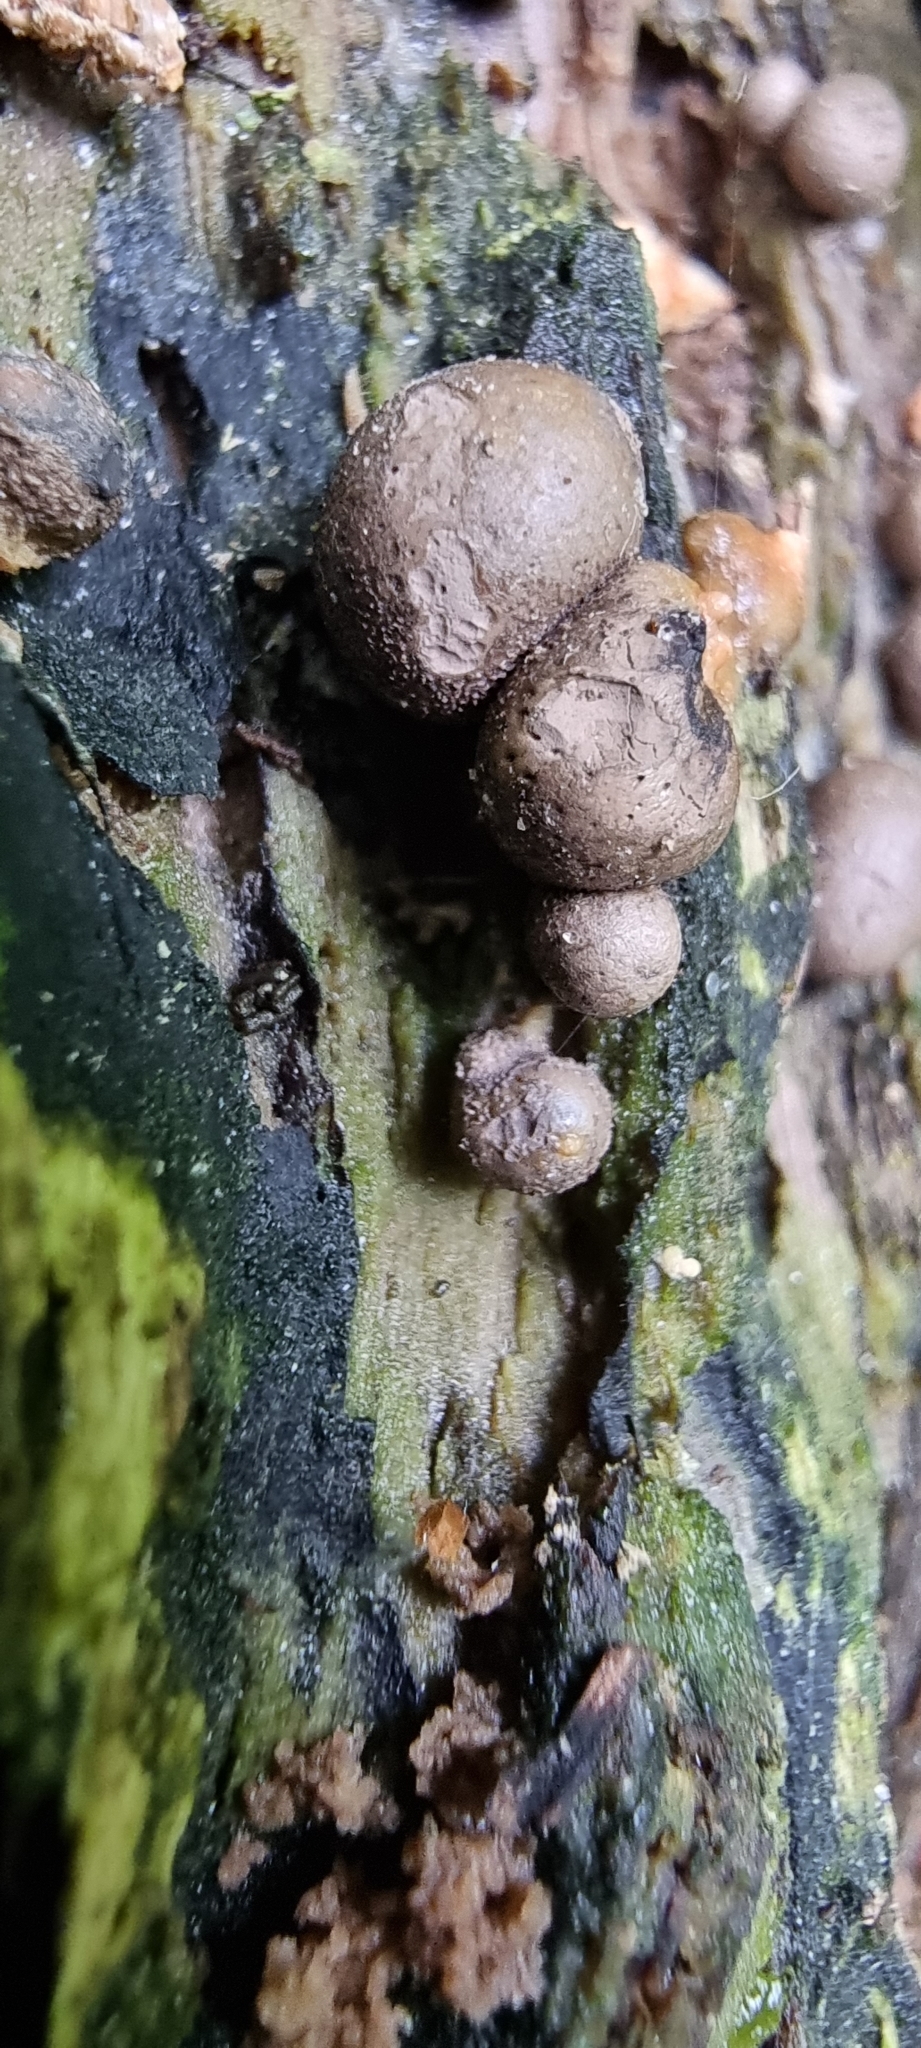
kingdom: Protozoa
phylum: Mycetozoa
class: Myxomycetes
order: Cribrariales
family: Tubiferaceae
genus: Lycogala
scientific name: Lycogala epidendrum
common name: Wolf's milk
